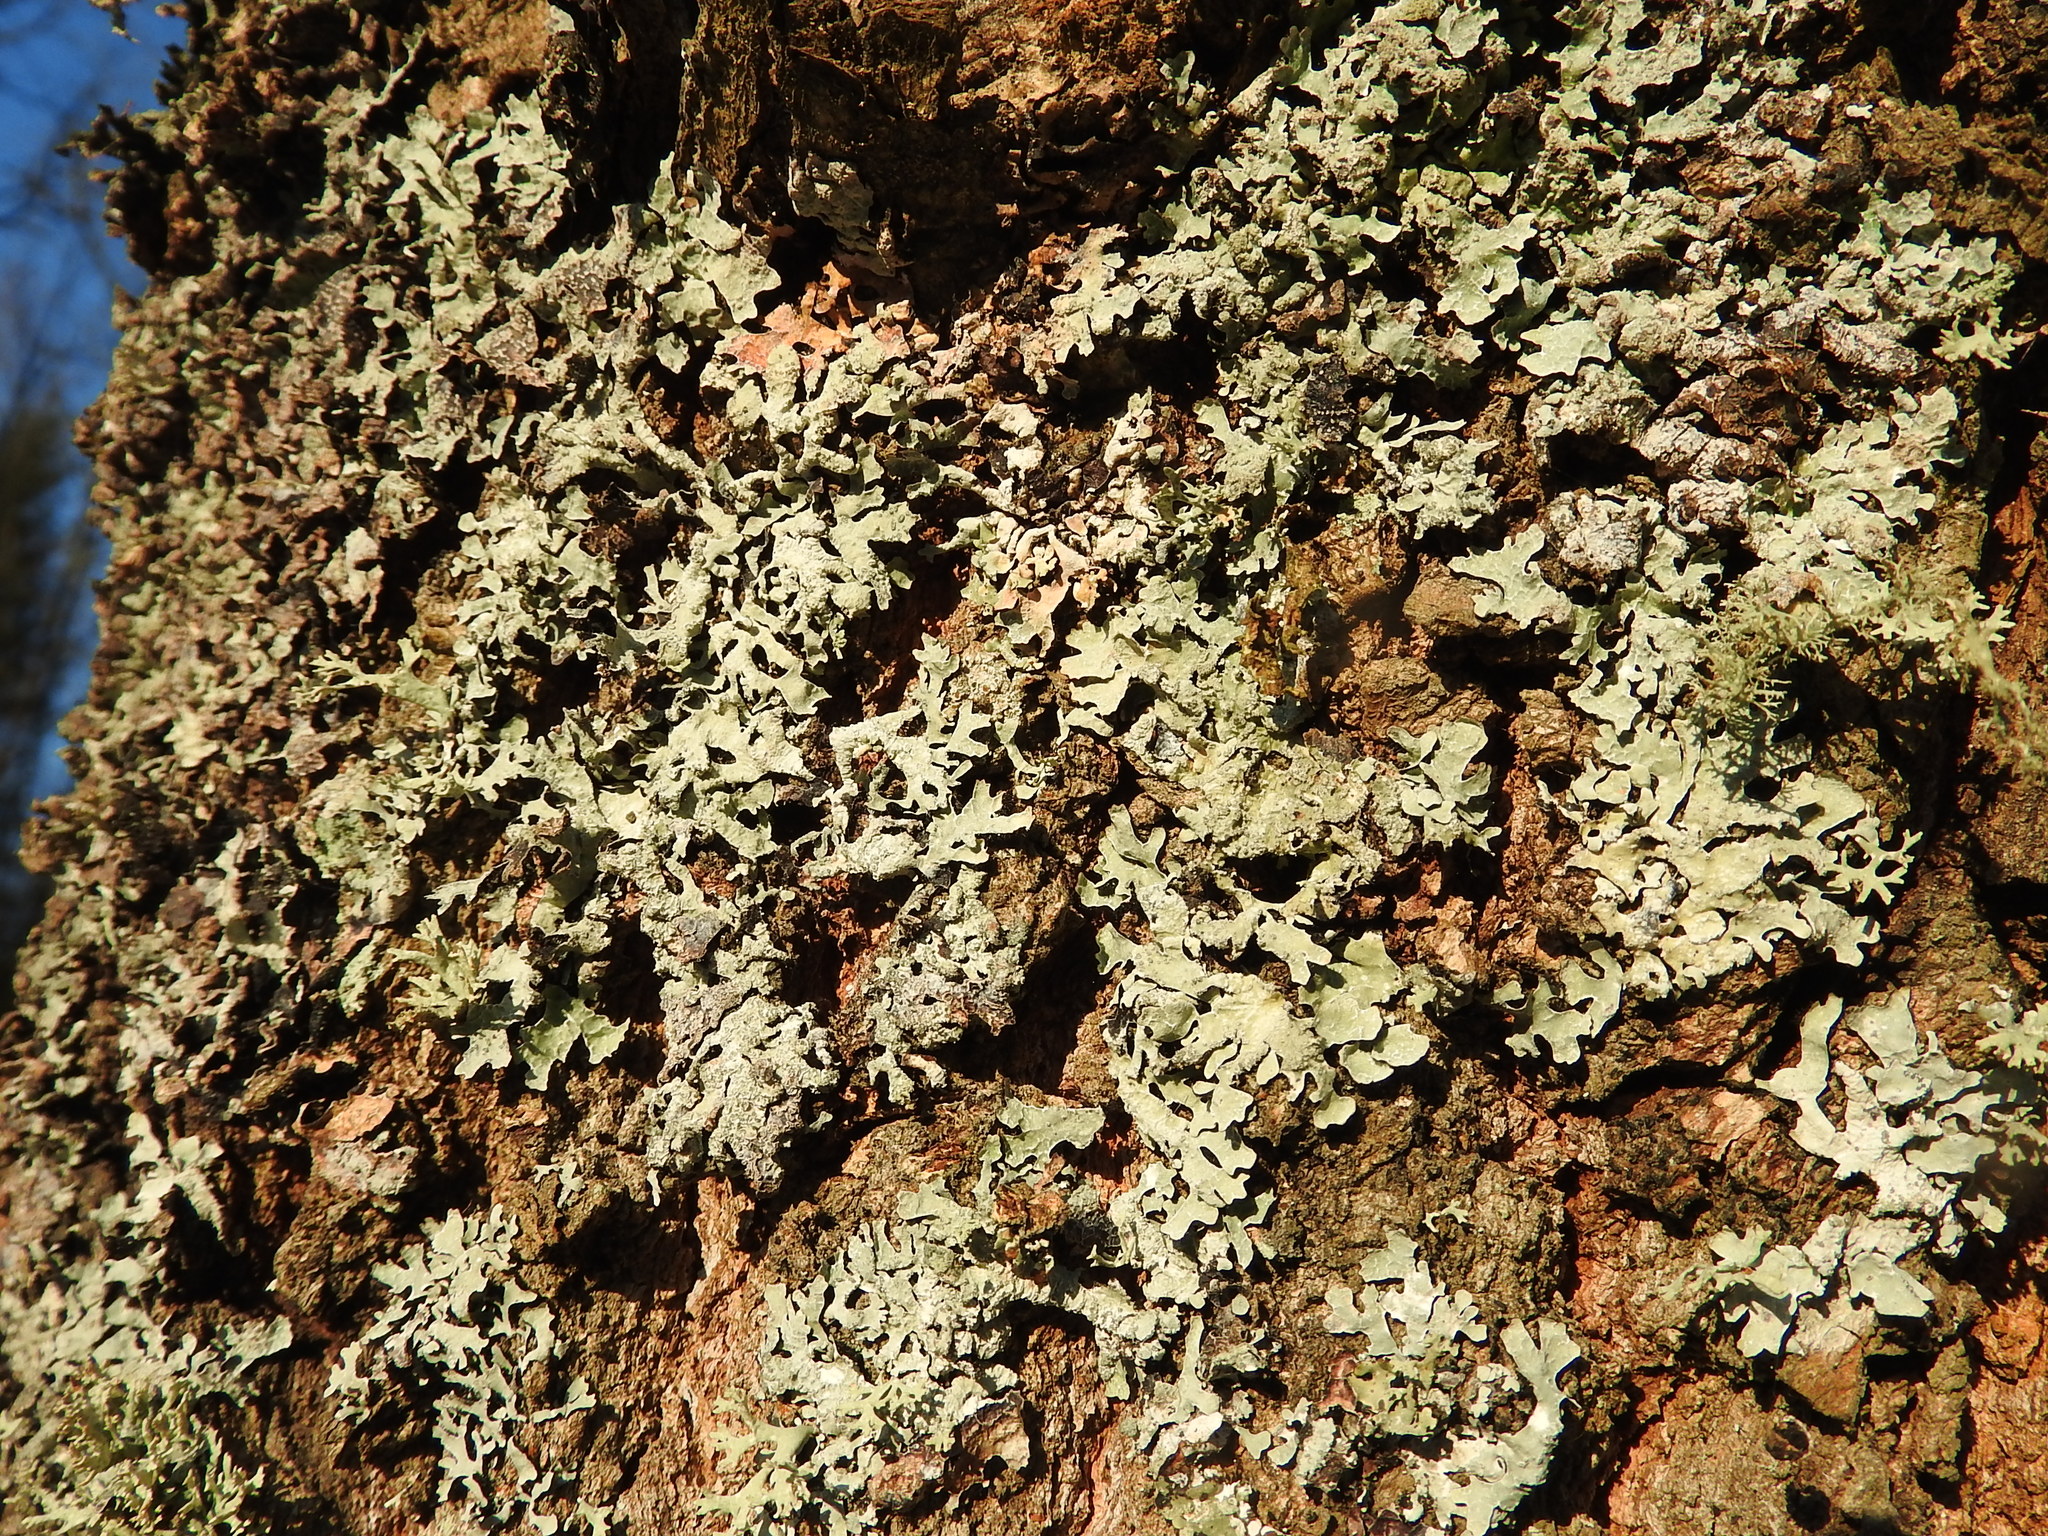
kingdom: Fungi
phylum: Ascomycota
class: Lecanoromycetes
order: Lecanorales
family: Parmeliaceae
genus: Parmelia
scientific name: Parmelia sulcata
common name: Netted shield lichen
